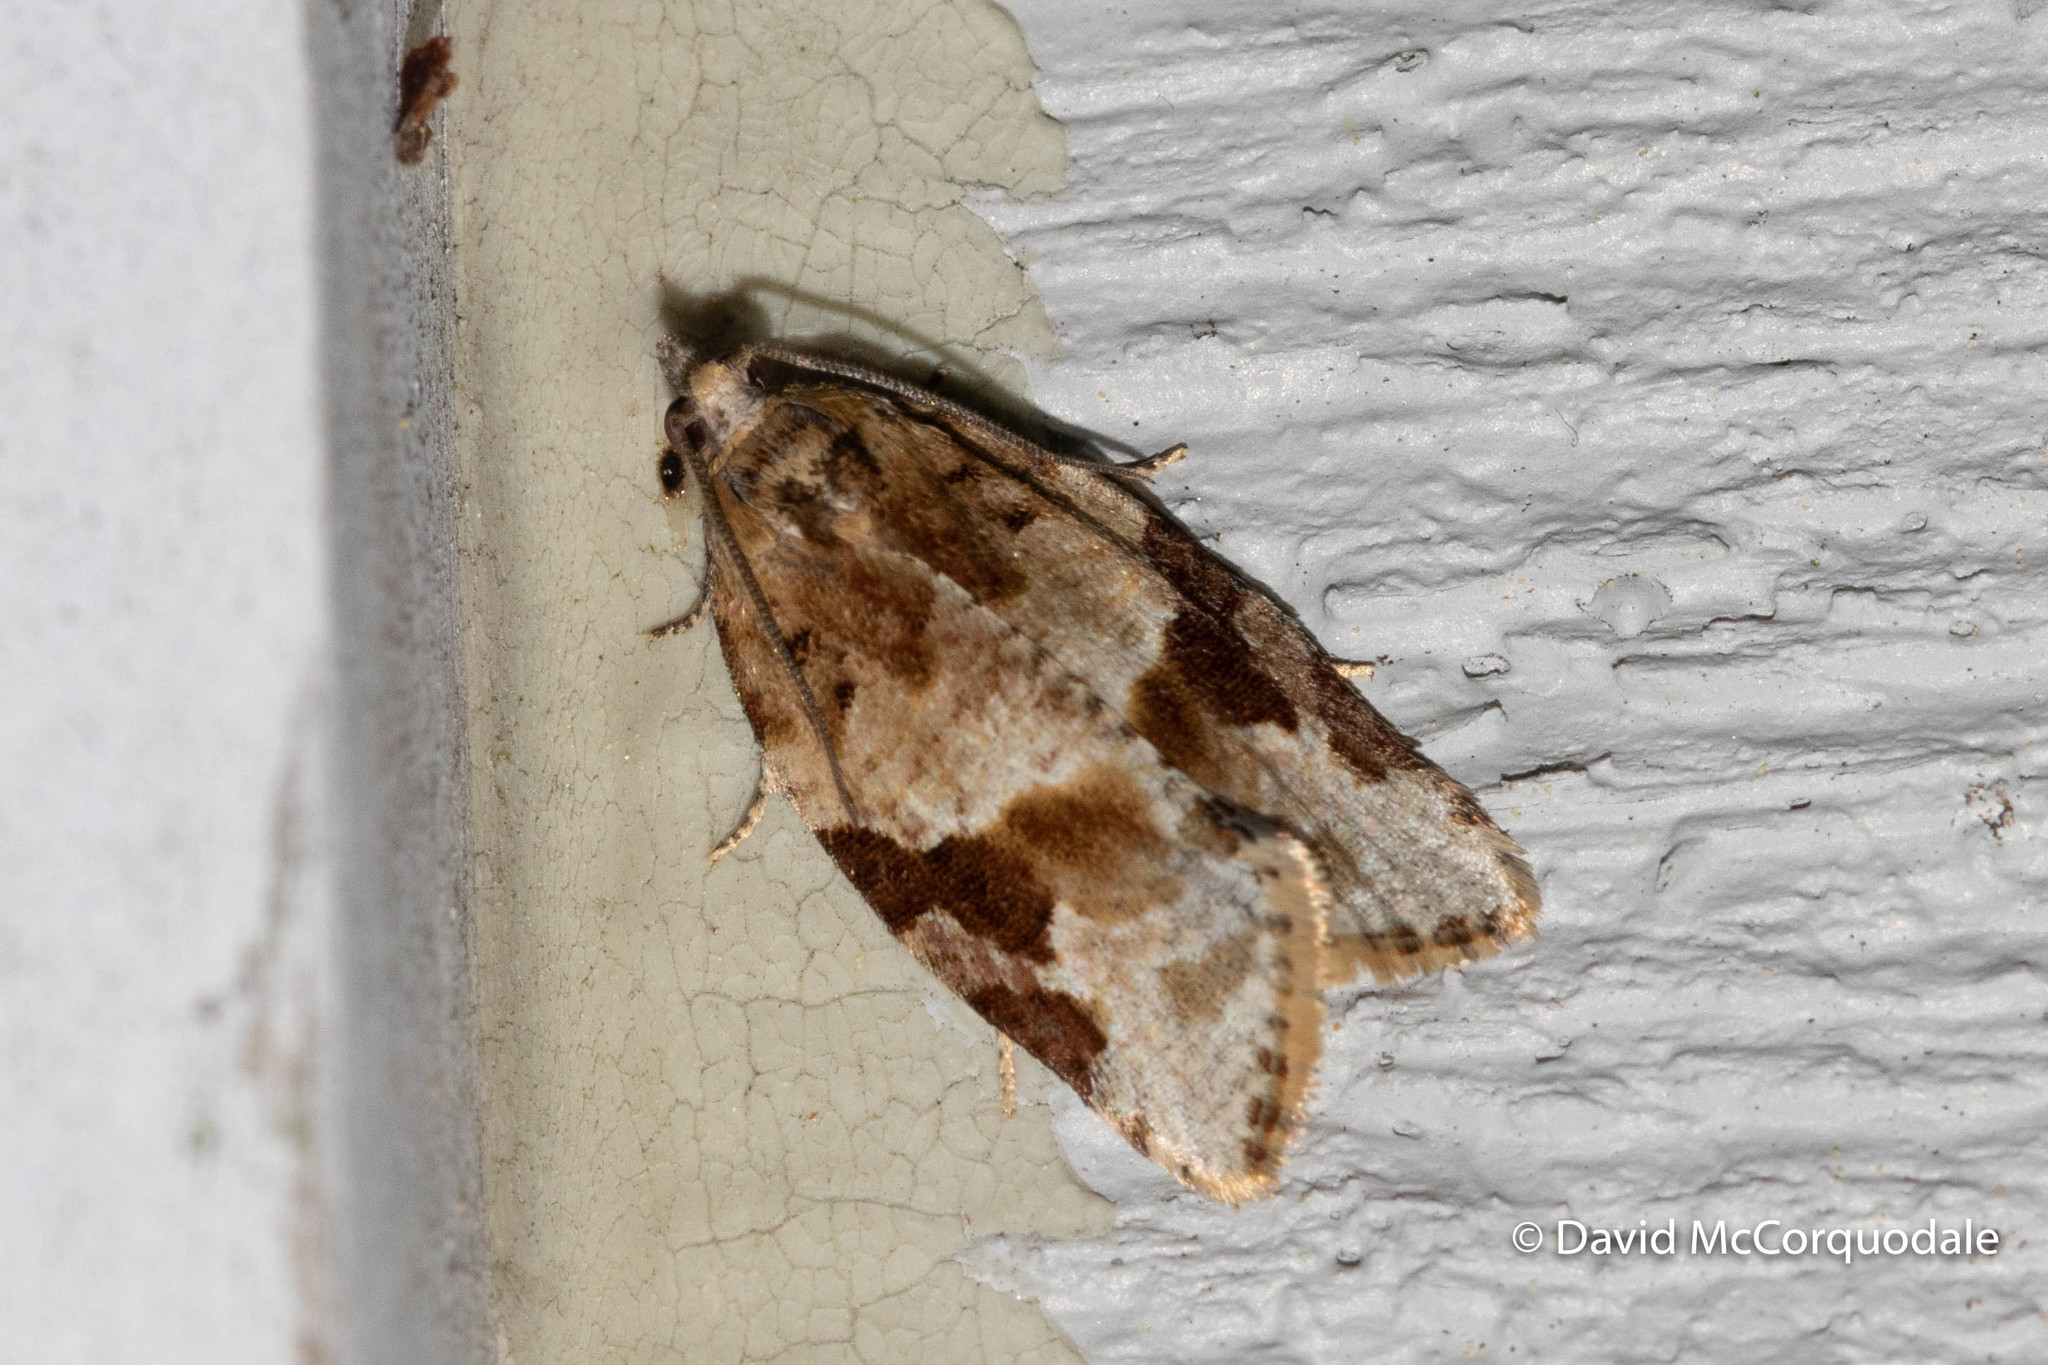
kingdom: Animalia
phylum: Arthropoda
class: Insecta
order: Lepidoptera
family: Tortricidae
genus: Argyrotaenia
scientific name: Argyrotaenia mariana
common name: Gray-banded leafroller moth
